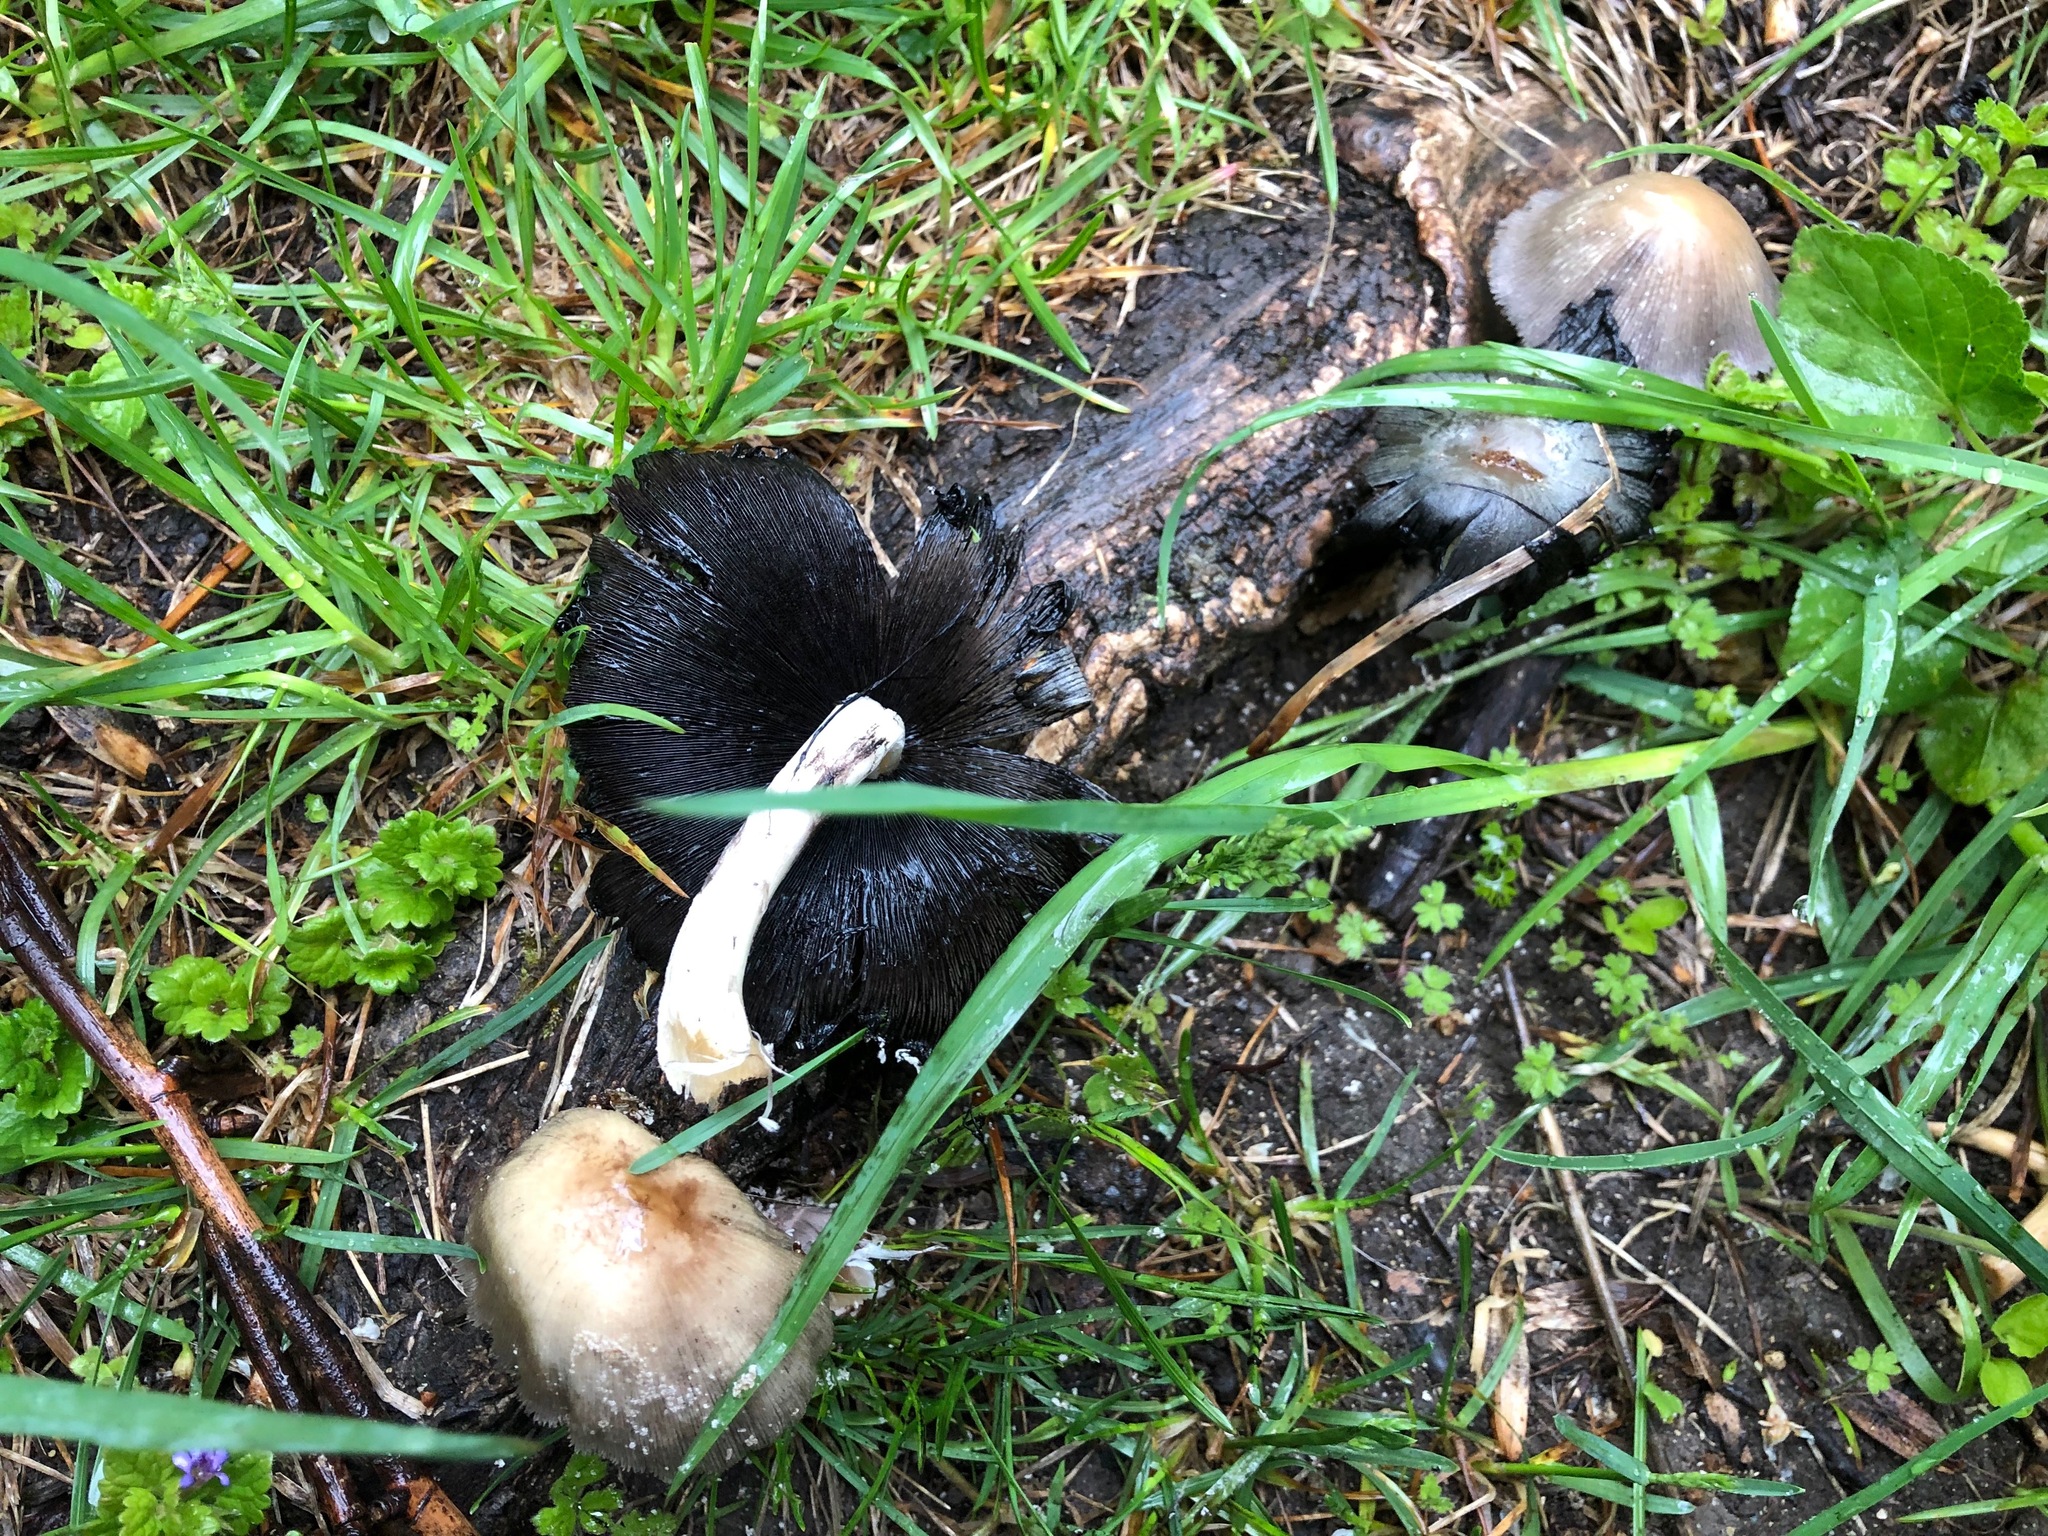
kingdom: Fungi
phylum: Basidiomycota
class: Agaricomycetes
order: Agaricales
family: Psathyrellaceae
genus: Coprinopsis
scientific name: Coprinopsis atramentaria
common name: Common ink-cap
